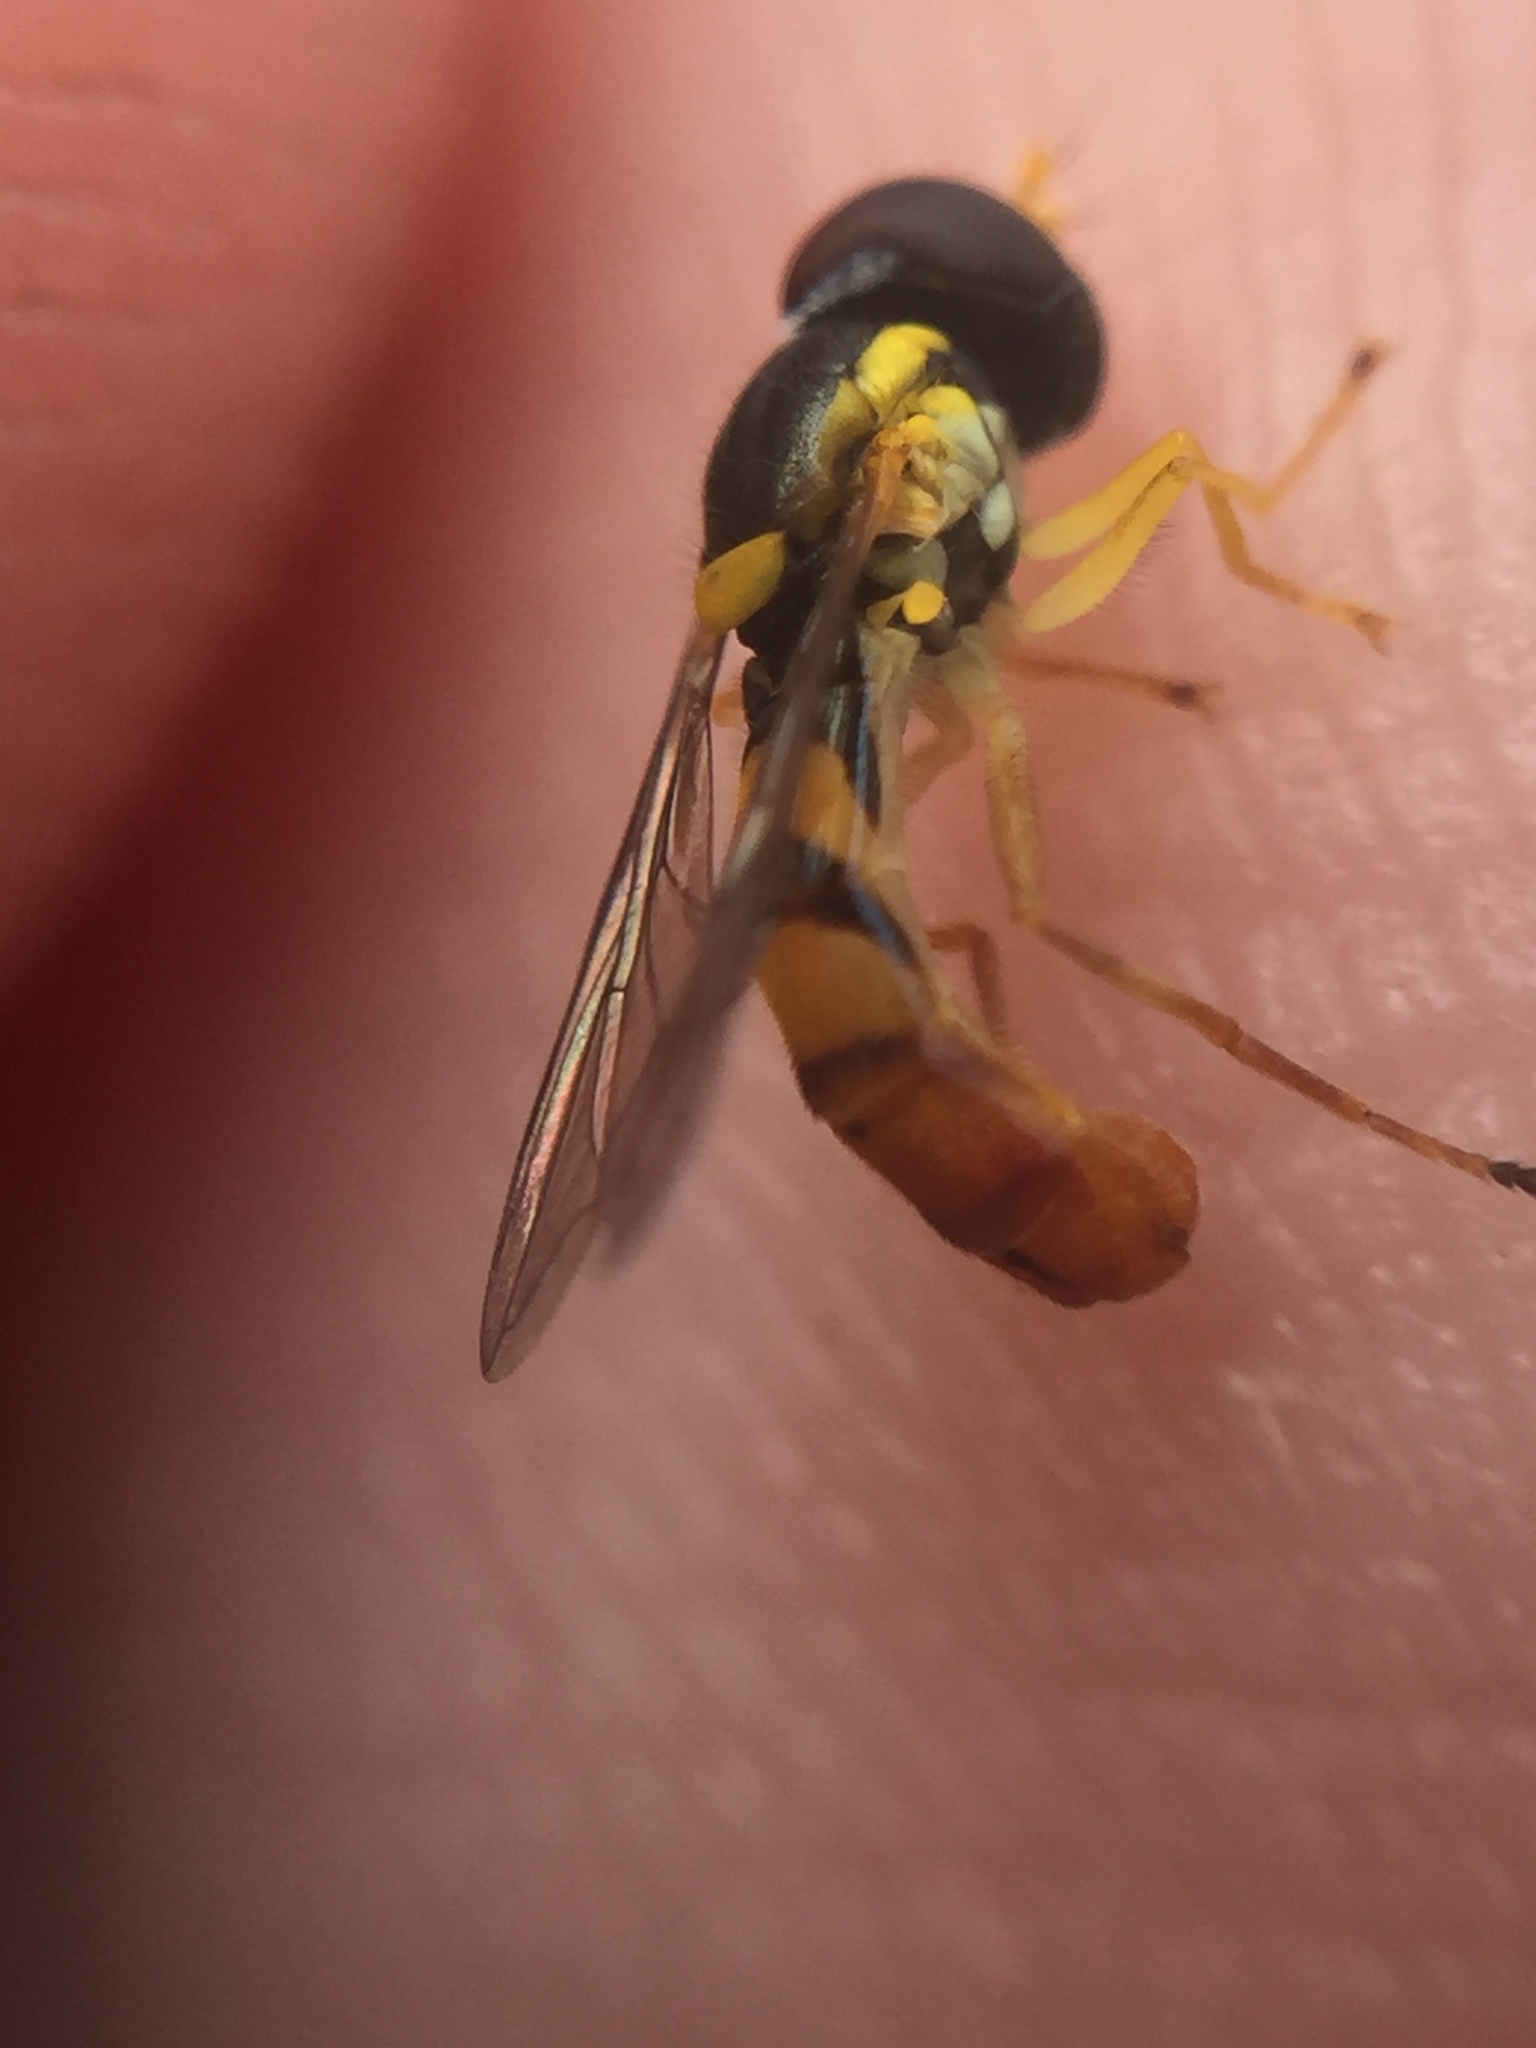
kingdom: Animalia
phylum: Arthropoda
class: Insecta
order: Diptera
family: Syrphidae
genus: Sphaerophoria
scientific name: Sphaerophoria macrogaster
